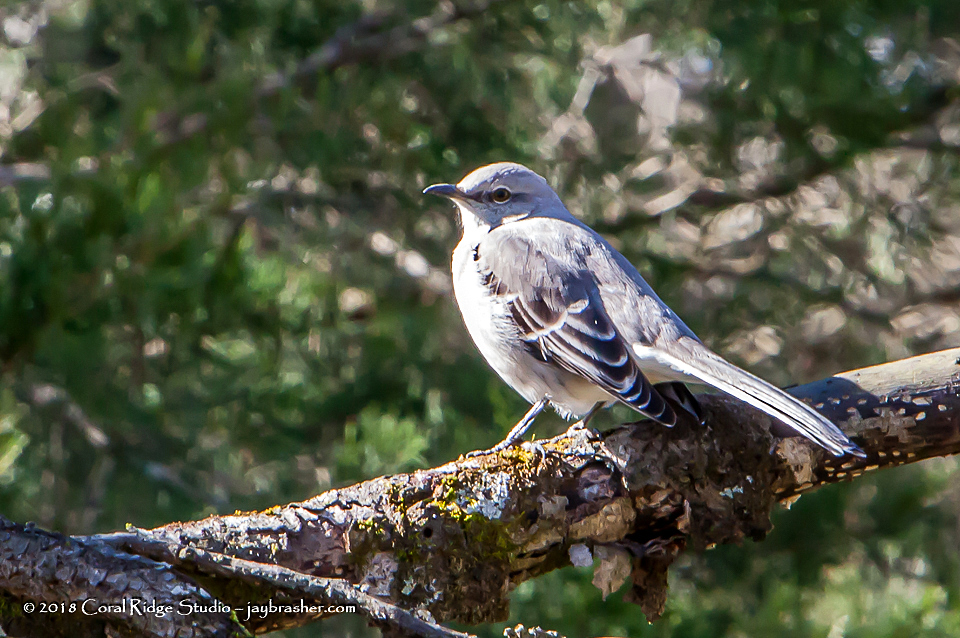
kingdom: Animalia
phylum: Chordata
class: Aves
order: Passeriformes
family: Mimidae
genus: Mimus
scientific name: Mimus polyglottos
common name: Northern mockingbird
